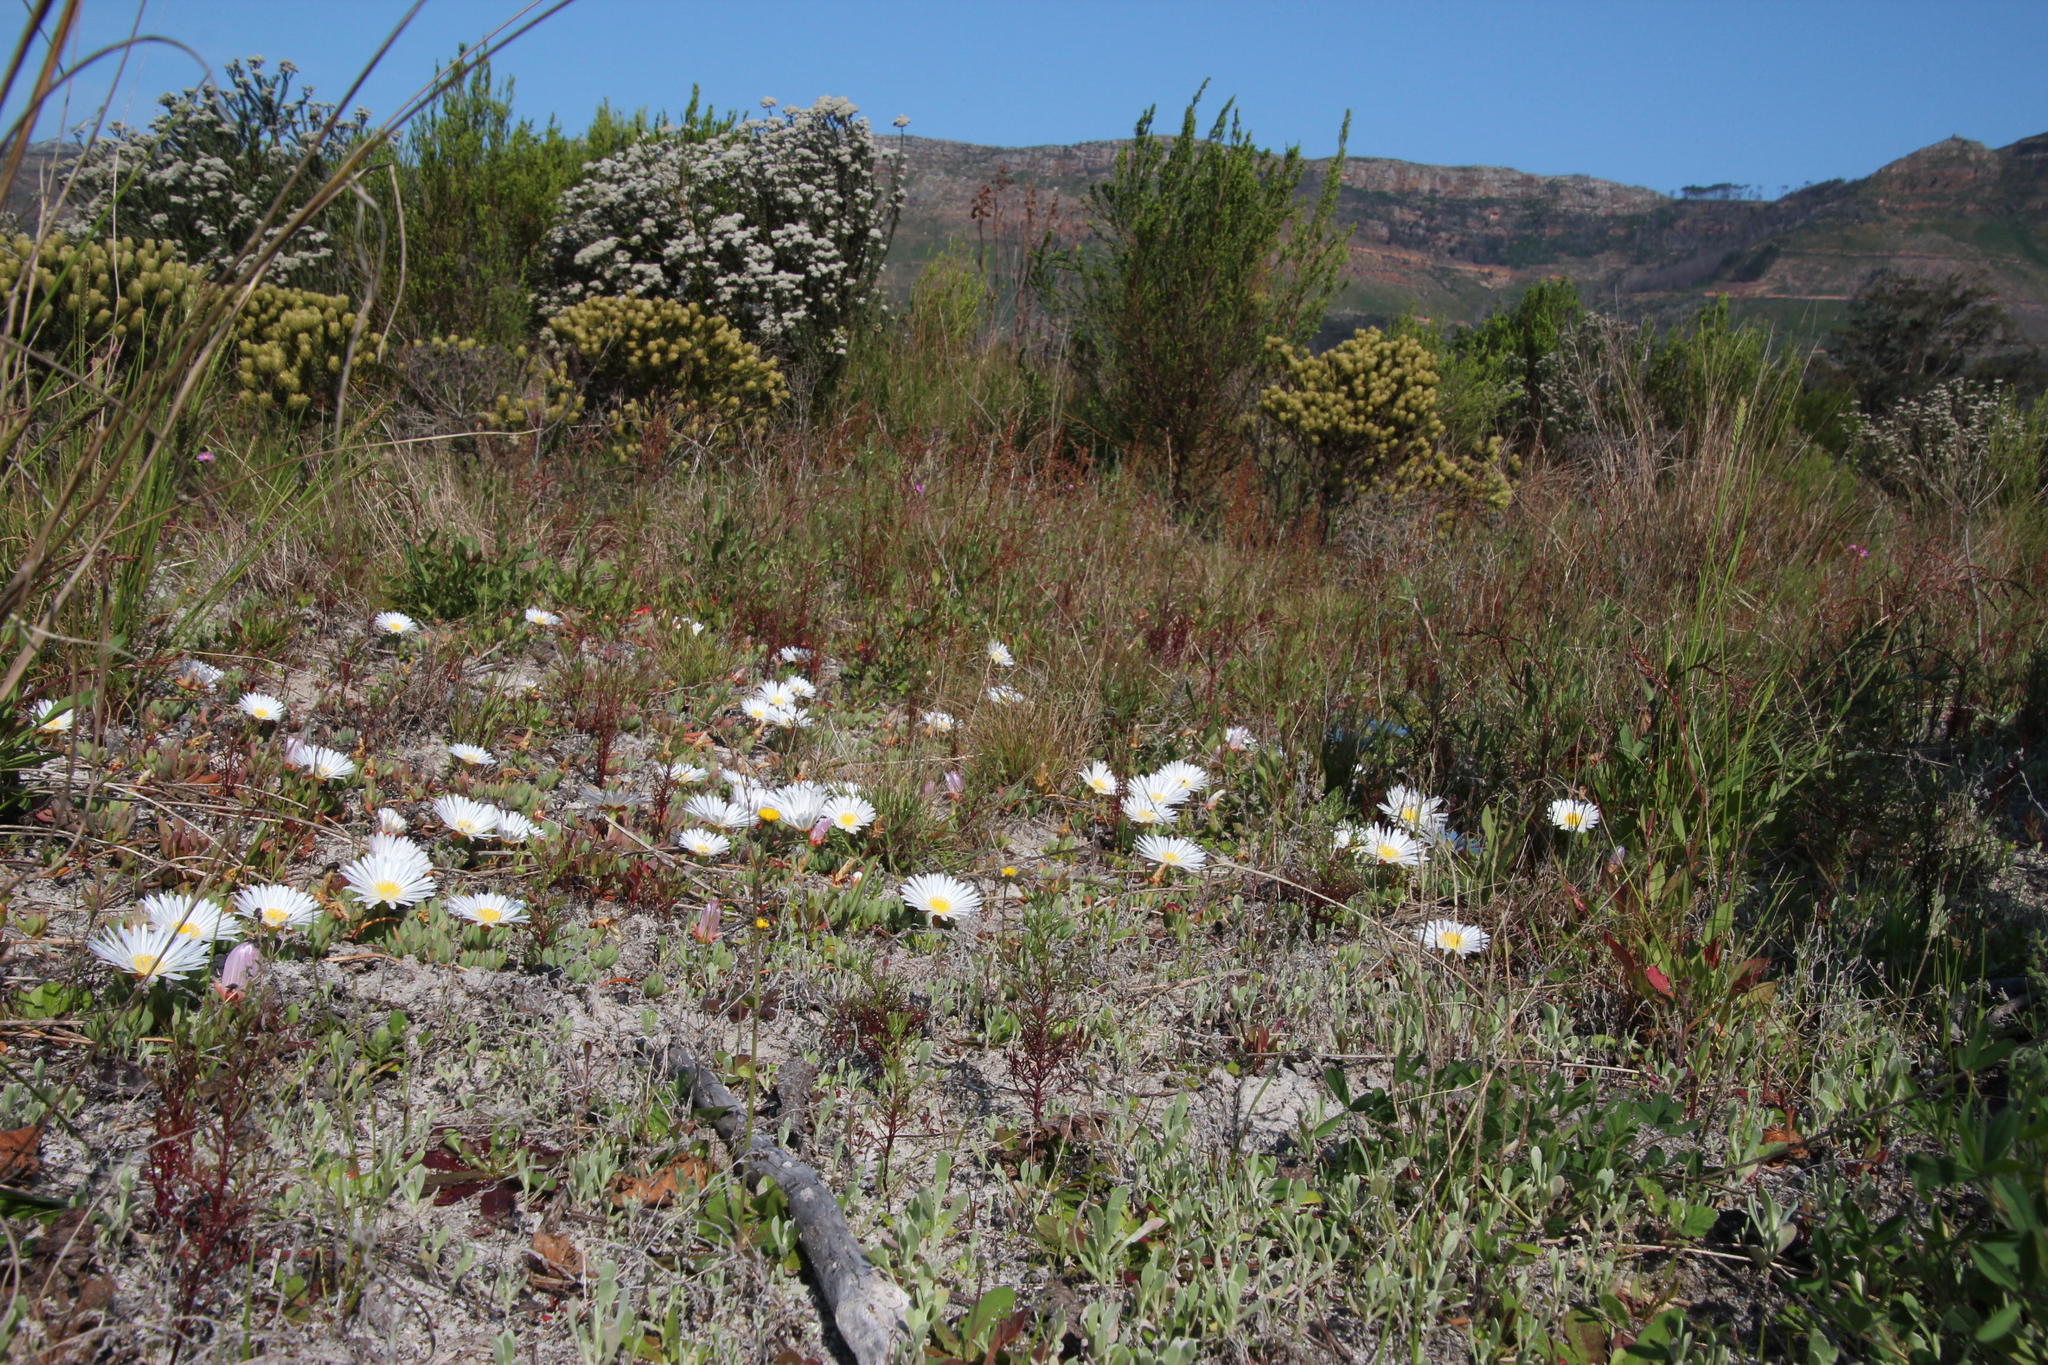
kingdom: Plantae
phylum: Tracheophyta
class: Magnoliopsida
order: Caryophyllales
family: Aizoaceae
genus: Lampranthus
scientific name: Lampranthus reptans
